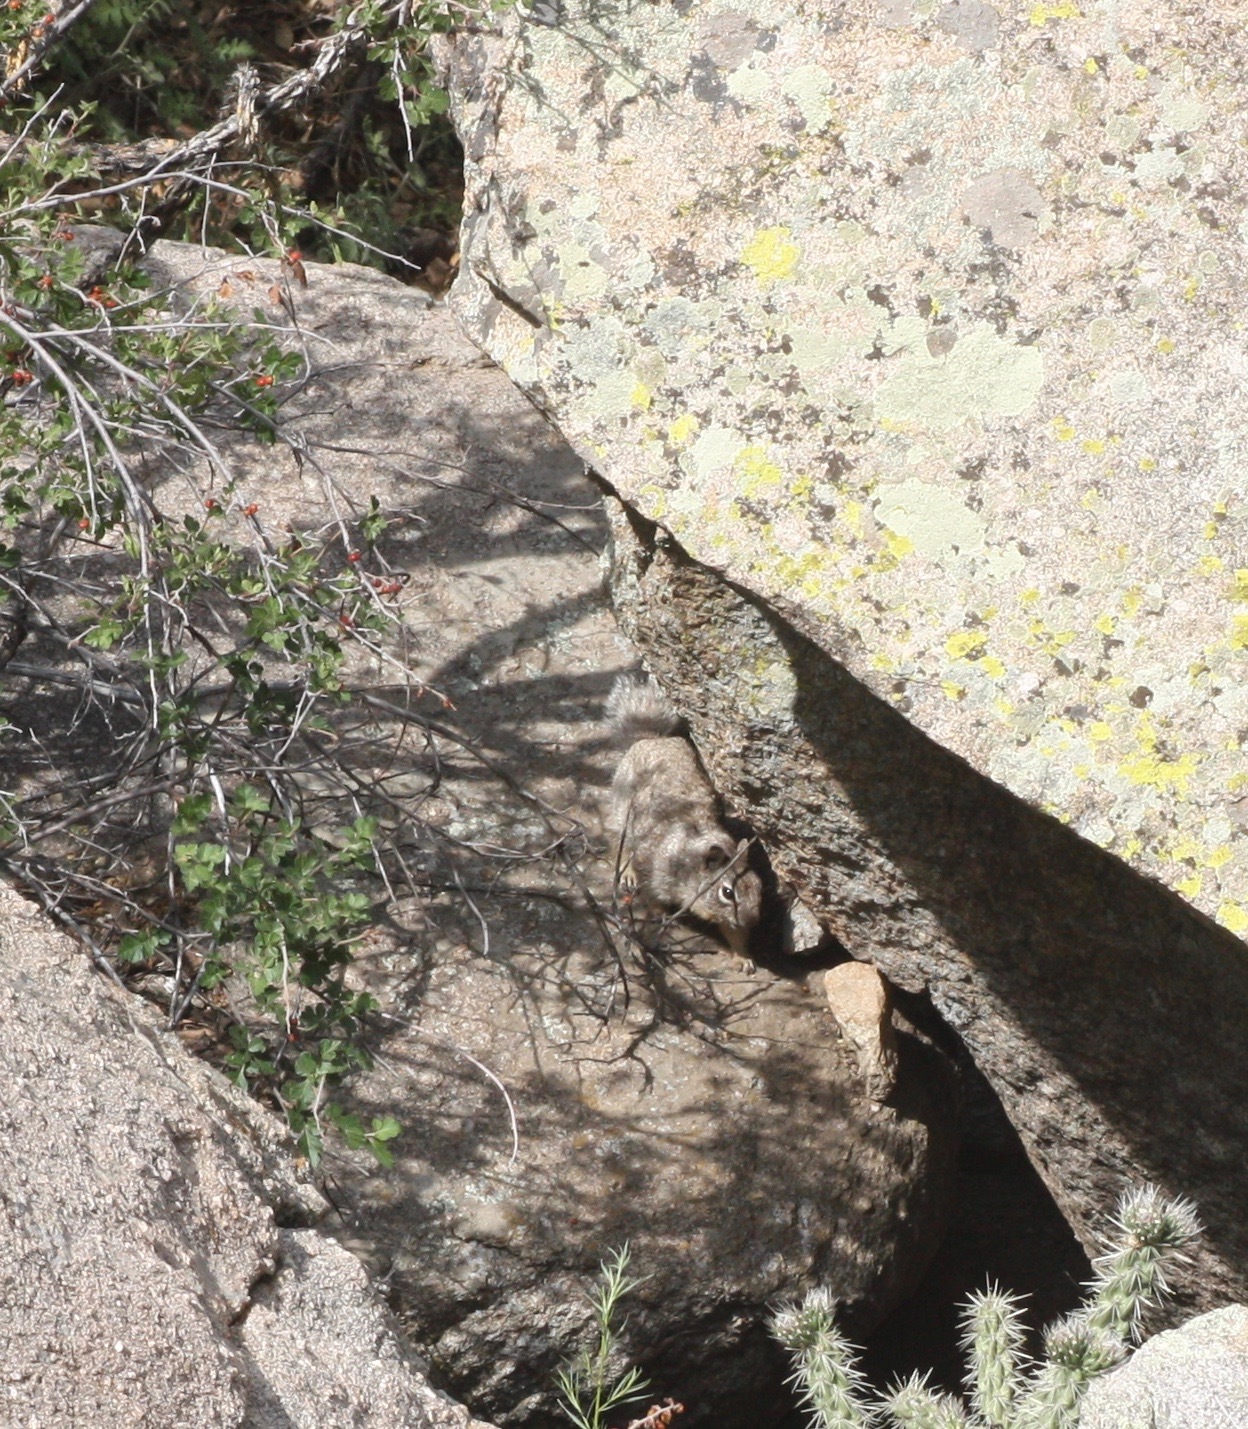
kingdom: Animalia
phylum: Chordata
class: Mammalia
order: Rodentia
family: Sciuridae
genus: Otospermophilus
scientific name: Otospermophilus variegatus
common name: Rock squirrel
